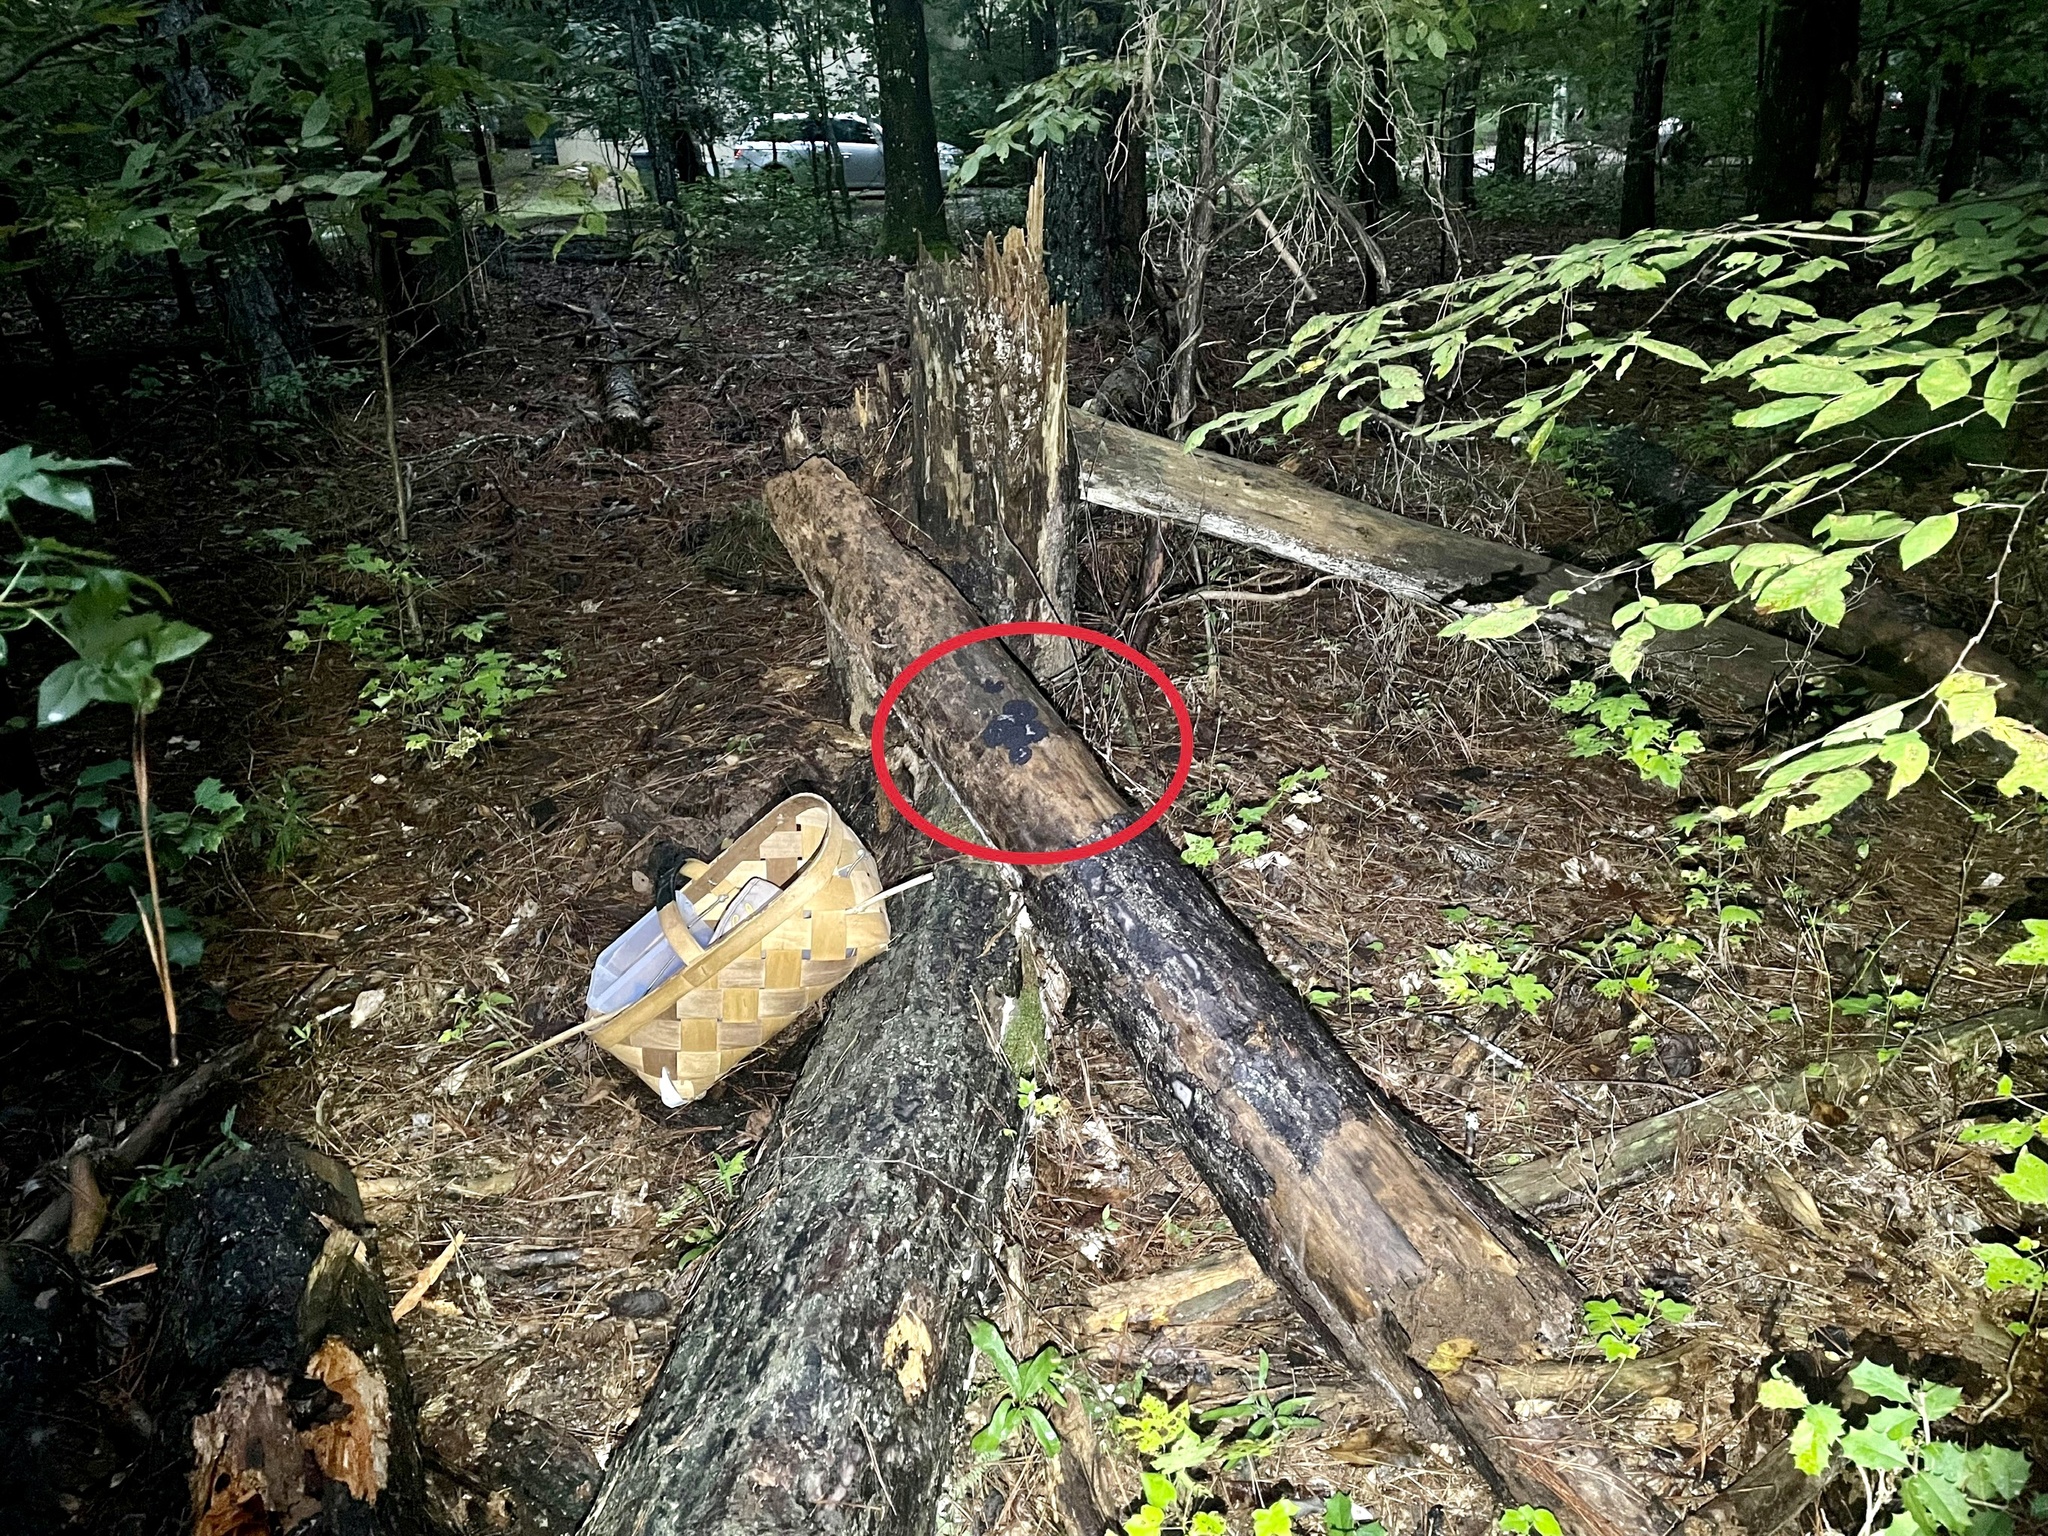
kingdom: Protozoa
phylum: Mycetozoa
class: Myxomycetes
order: Cribrariales
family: Cribrariaceae
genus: Lindbladia
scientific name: Lindbladia tubulina
